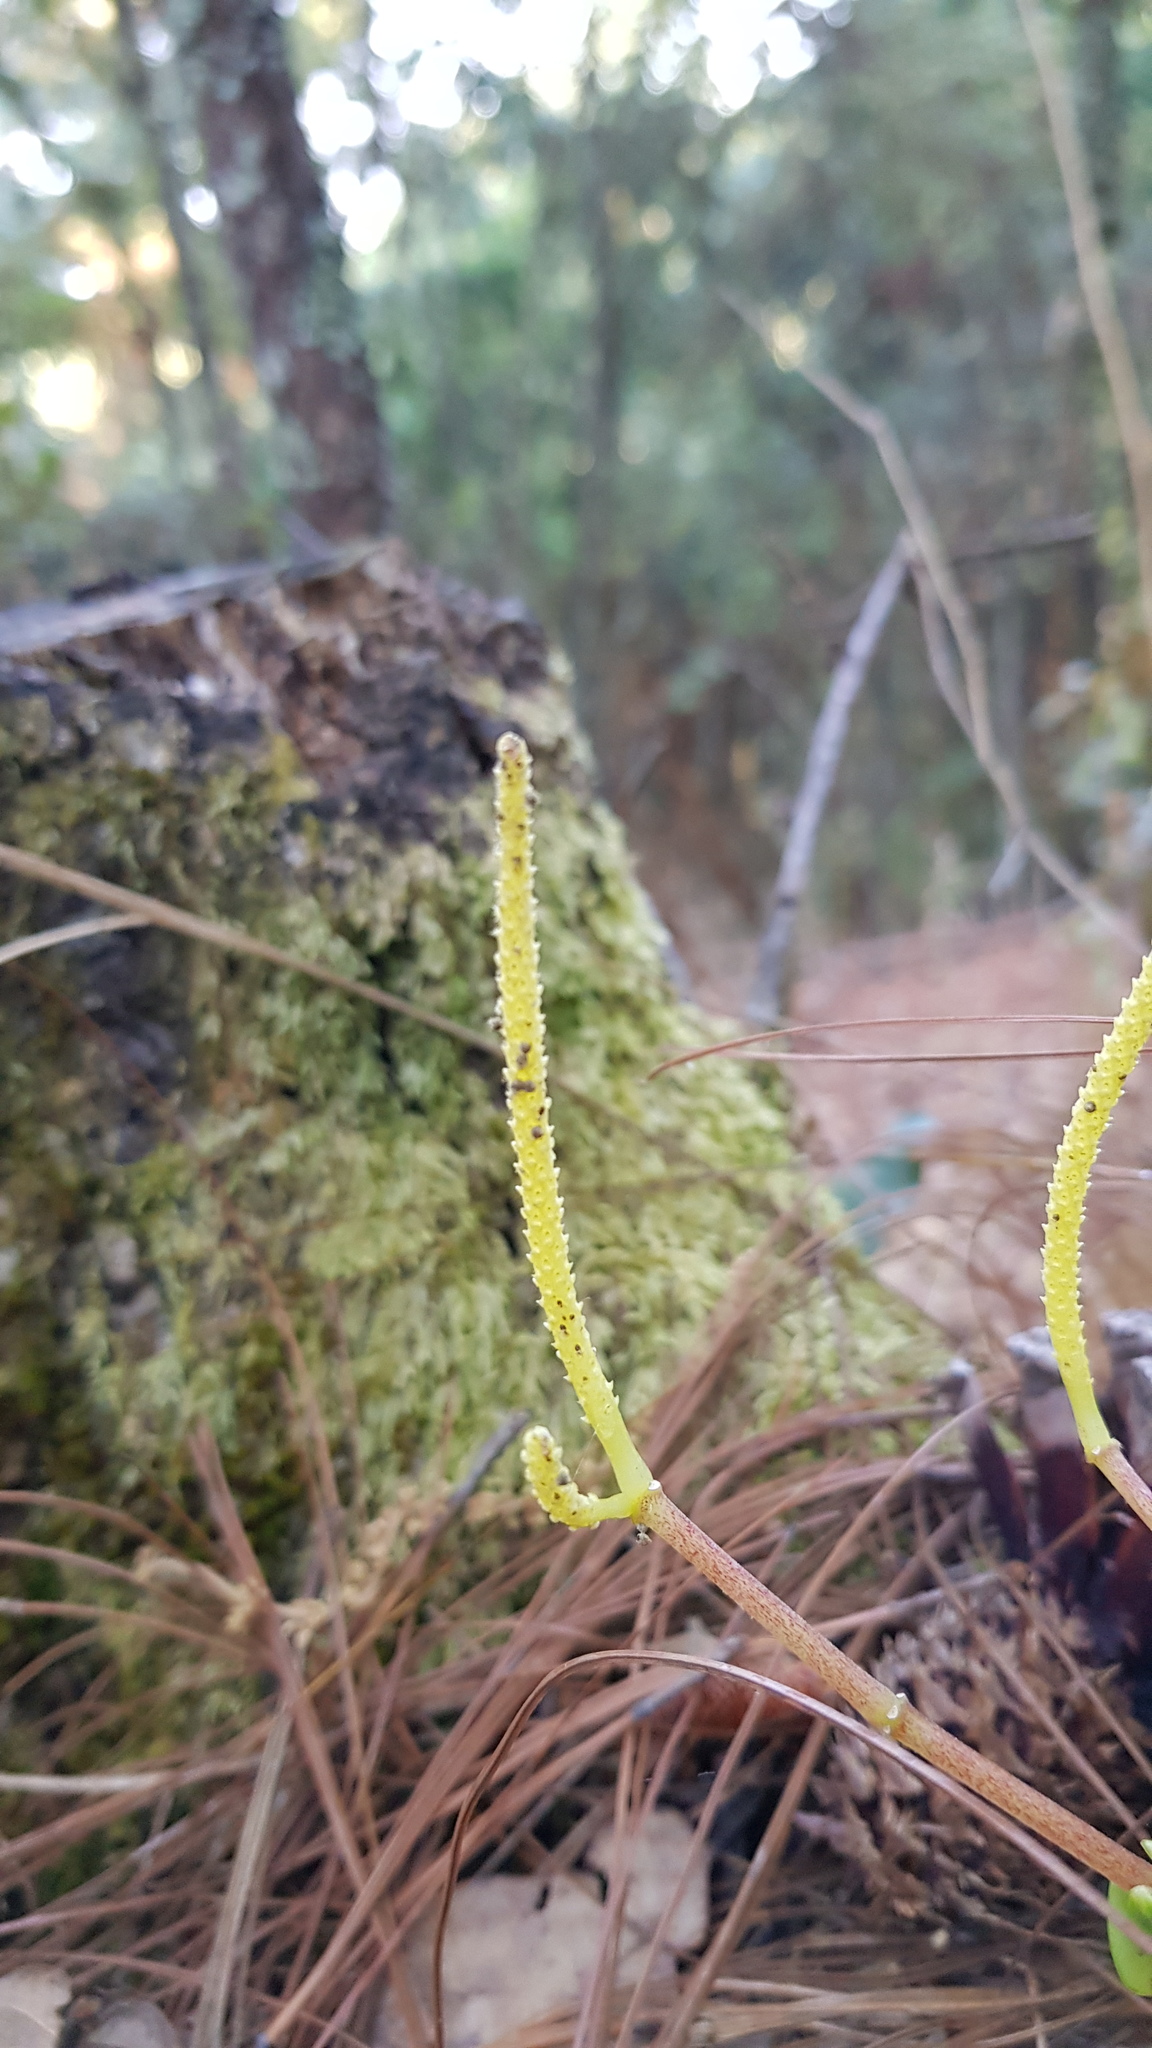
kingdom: Plantae
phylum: Tracheophyta
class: Magnoliopsida
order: Piperales
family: Piperaceae
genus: Peperomia
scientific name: Peperomia leptophylla
